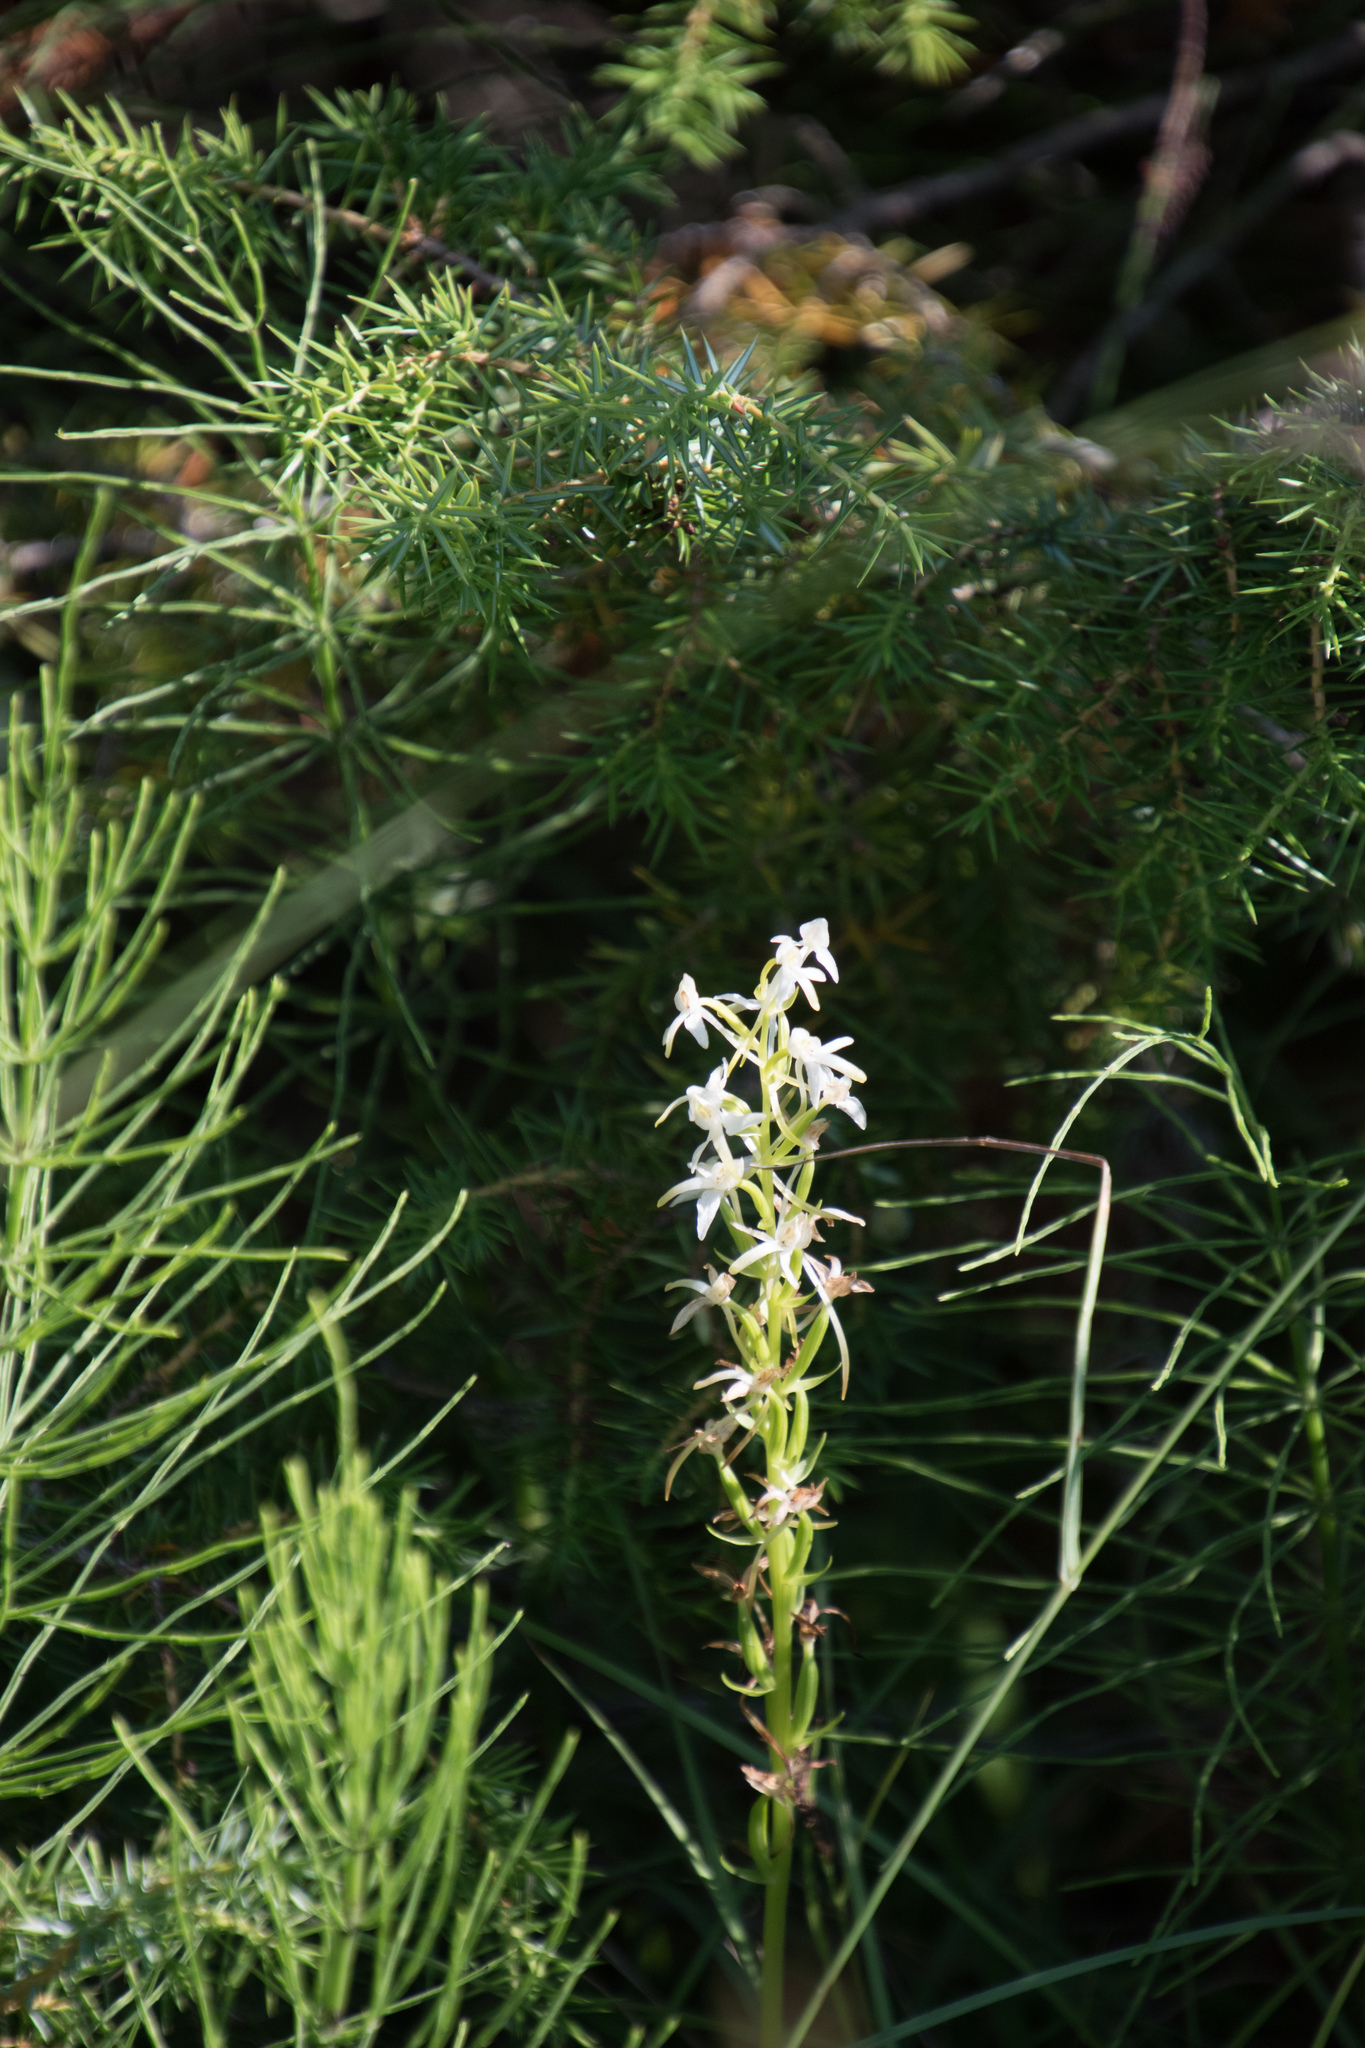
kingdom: Plantae
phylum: Tracheophyta
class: Liliopsida
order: Asparagales
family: Orchidaceae
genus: Platanthera
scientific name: Platanthera bifolia
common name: Lesser butterfly-orchid
